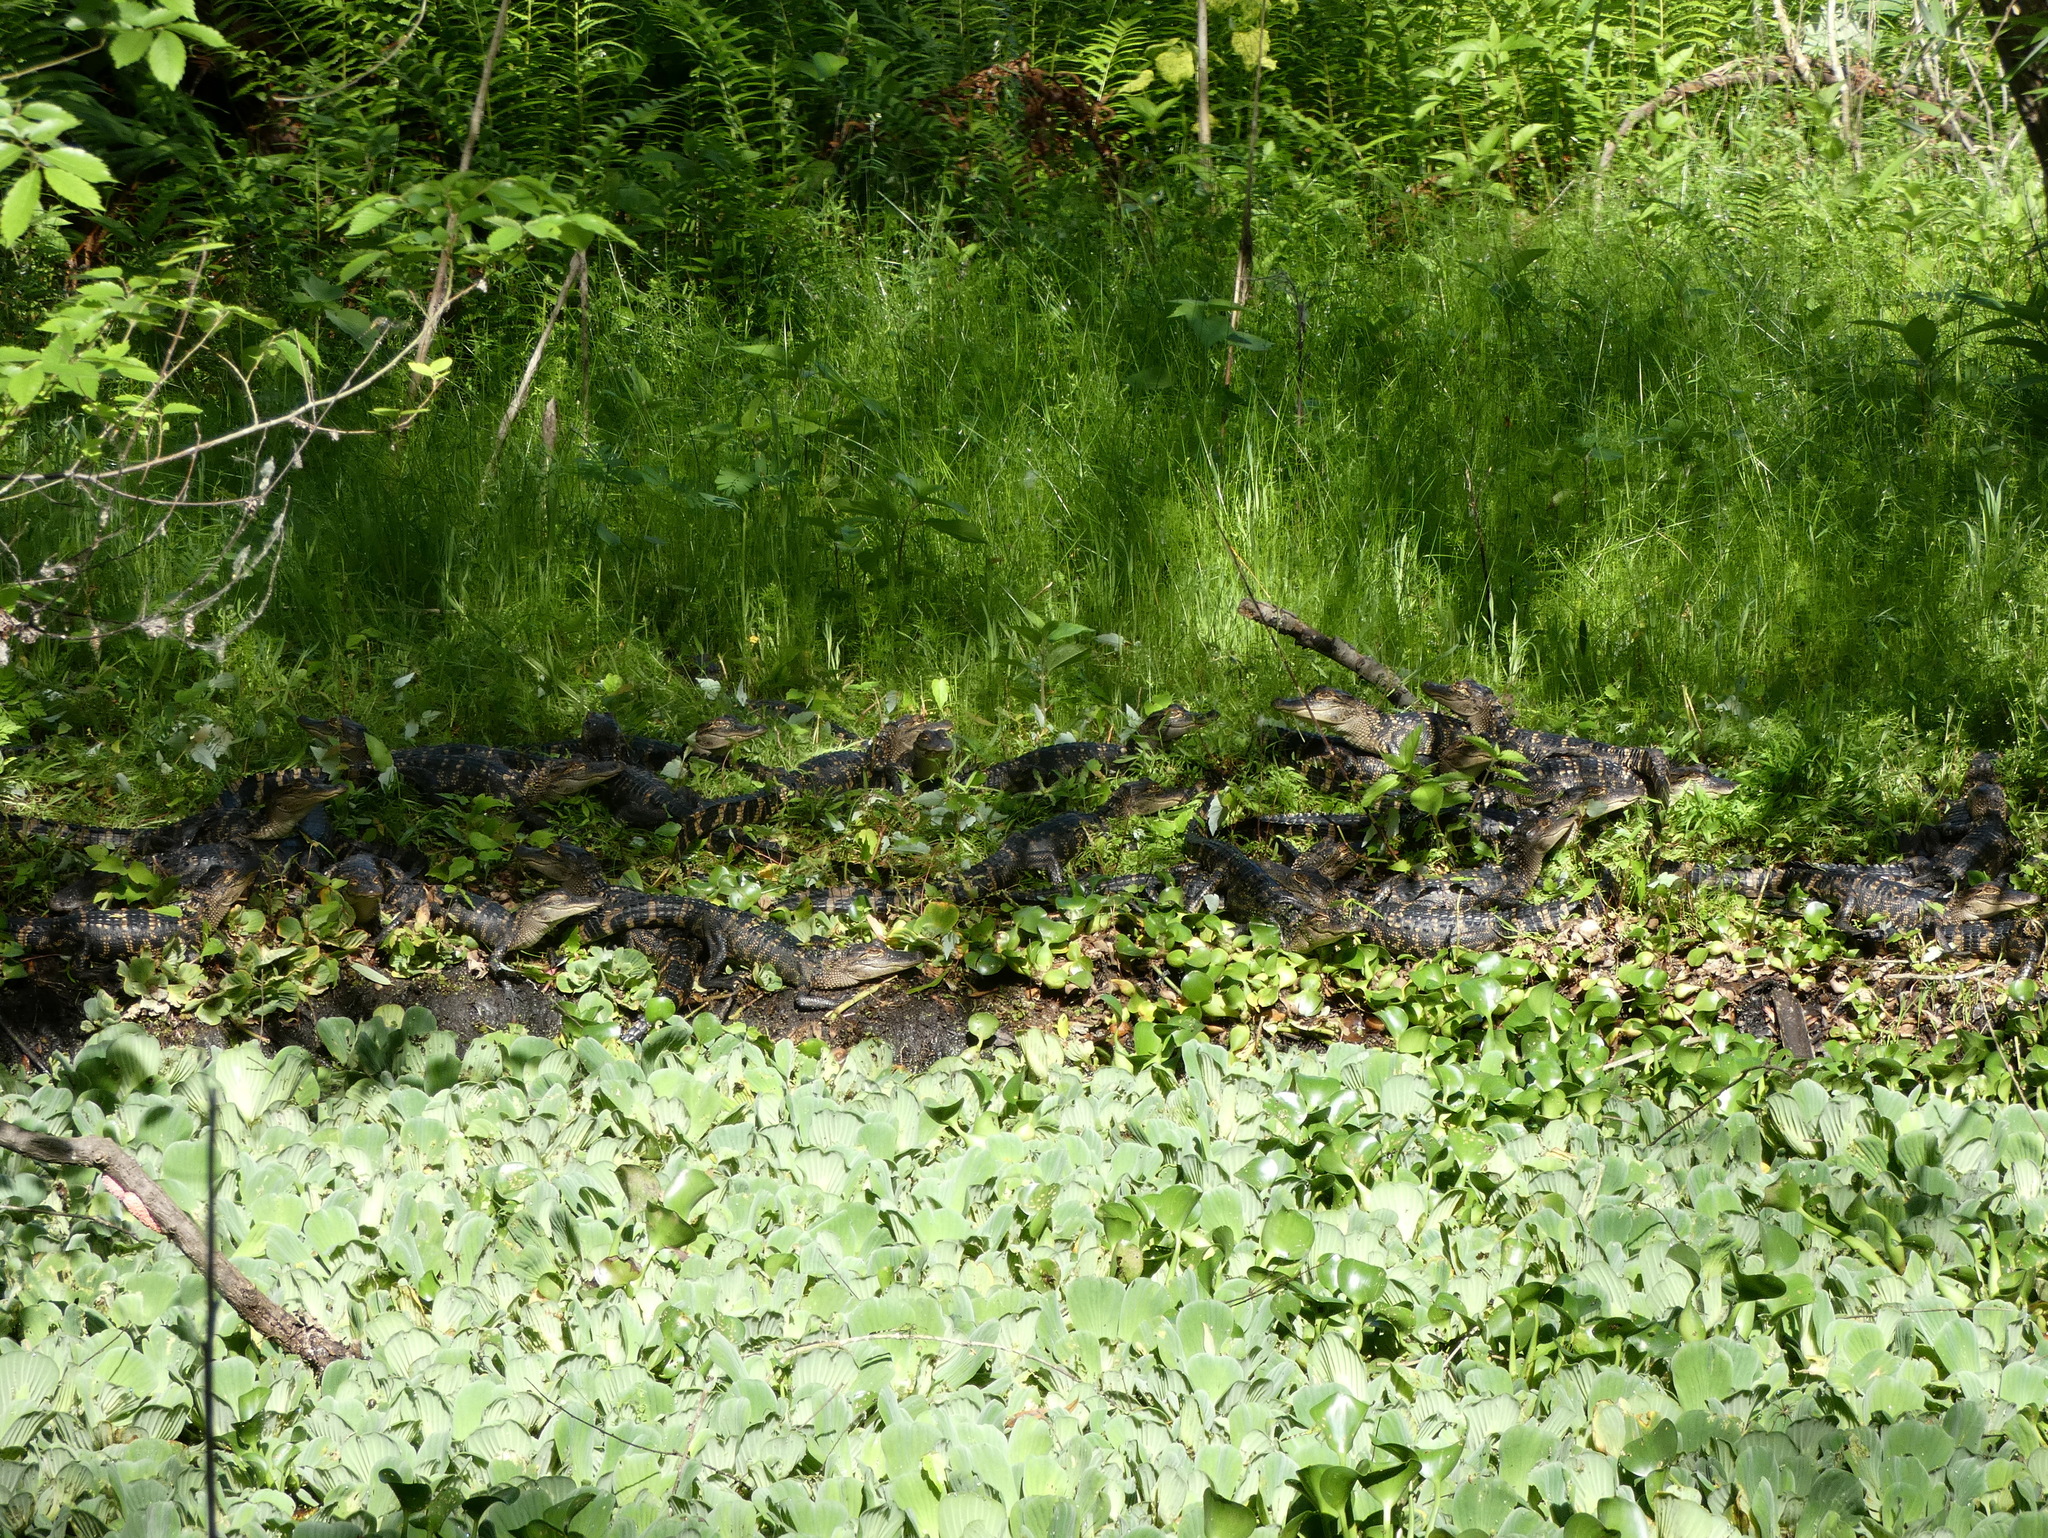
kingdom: Animalia
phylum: Chordata
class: Crocodylia
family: Alligatoridae
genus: Alligator
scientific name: Alligator mississippiensis
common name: American alligator
